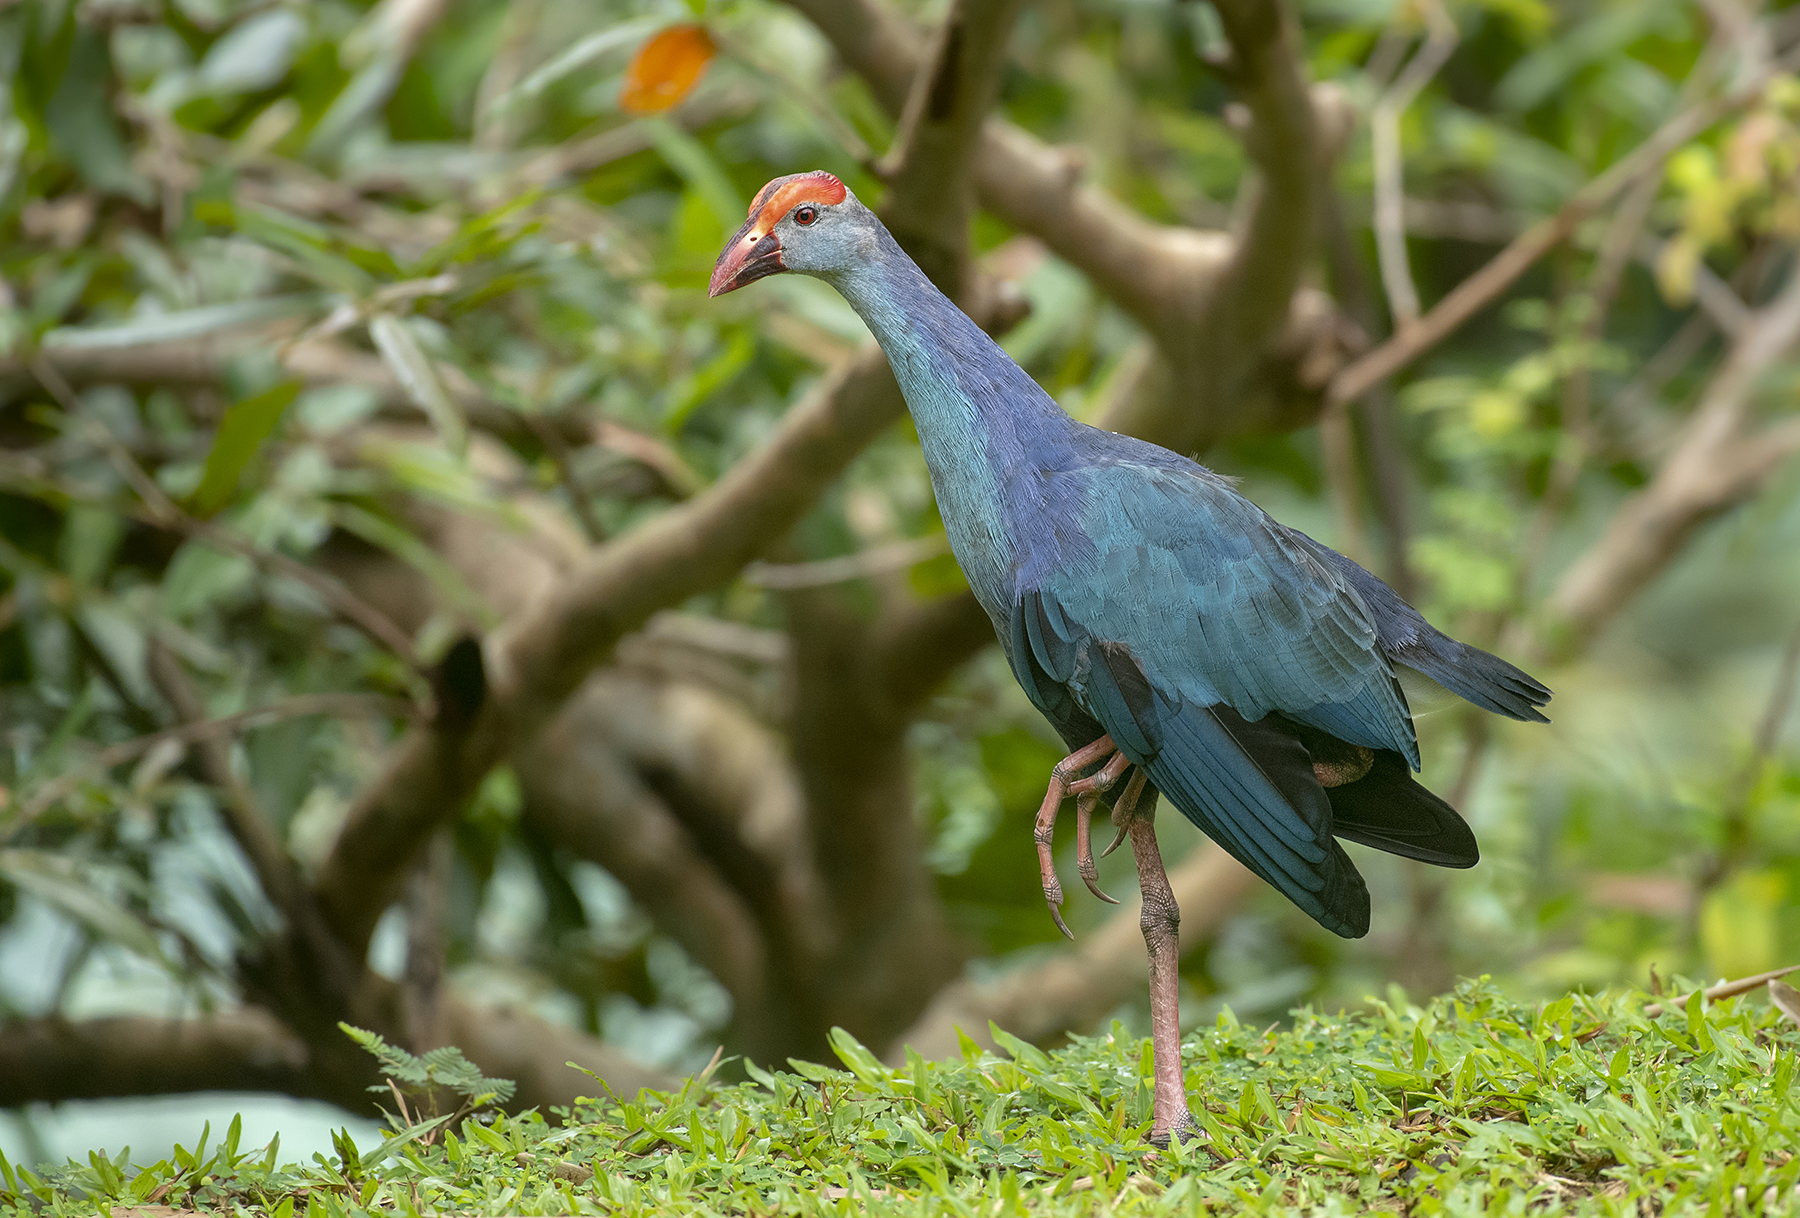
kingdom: Animalia
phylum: Chordata
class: Aves
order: Gruiformes
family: Rallidae
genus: Porphyrio
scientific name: Porphyrio porphyrio
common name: Purple swamphen
